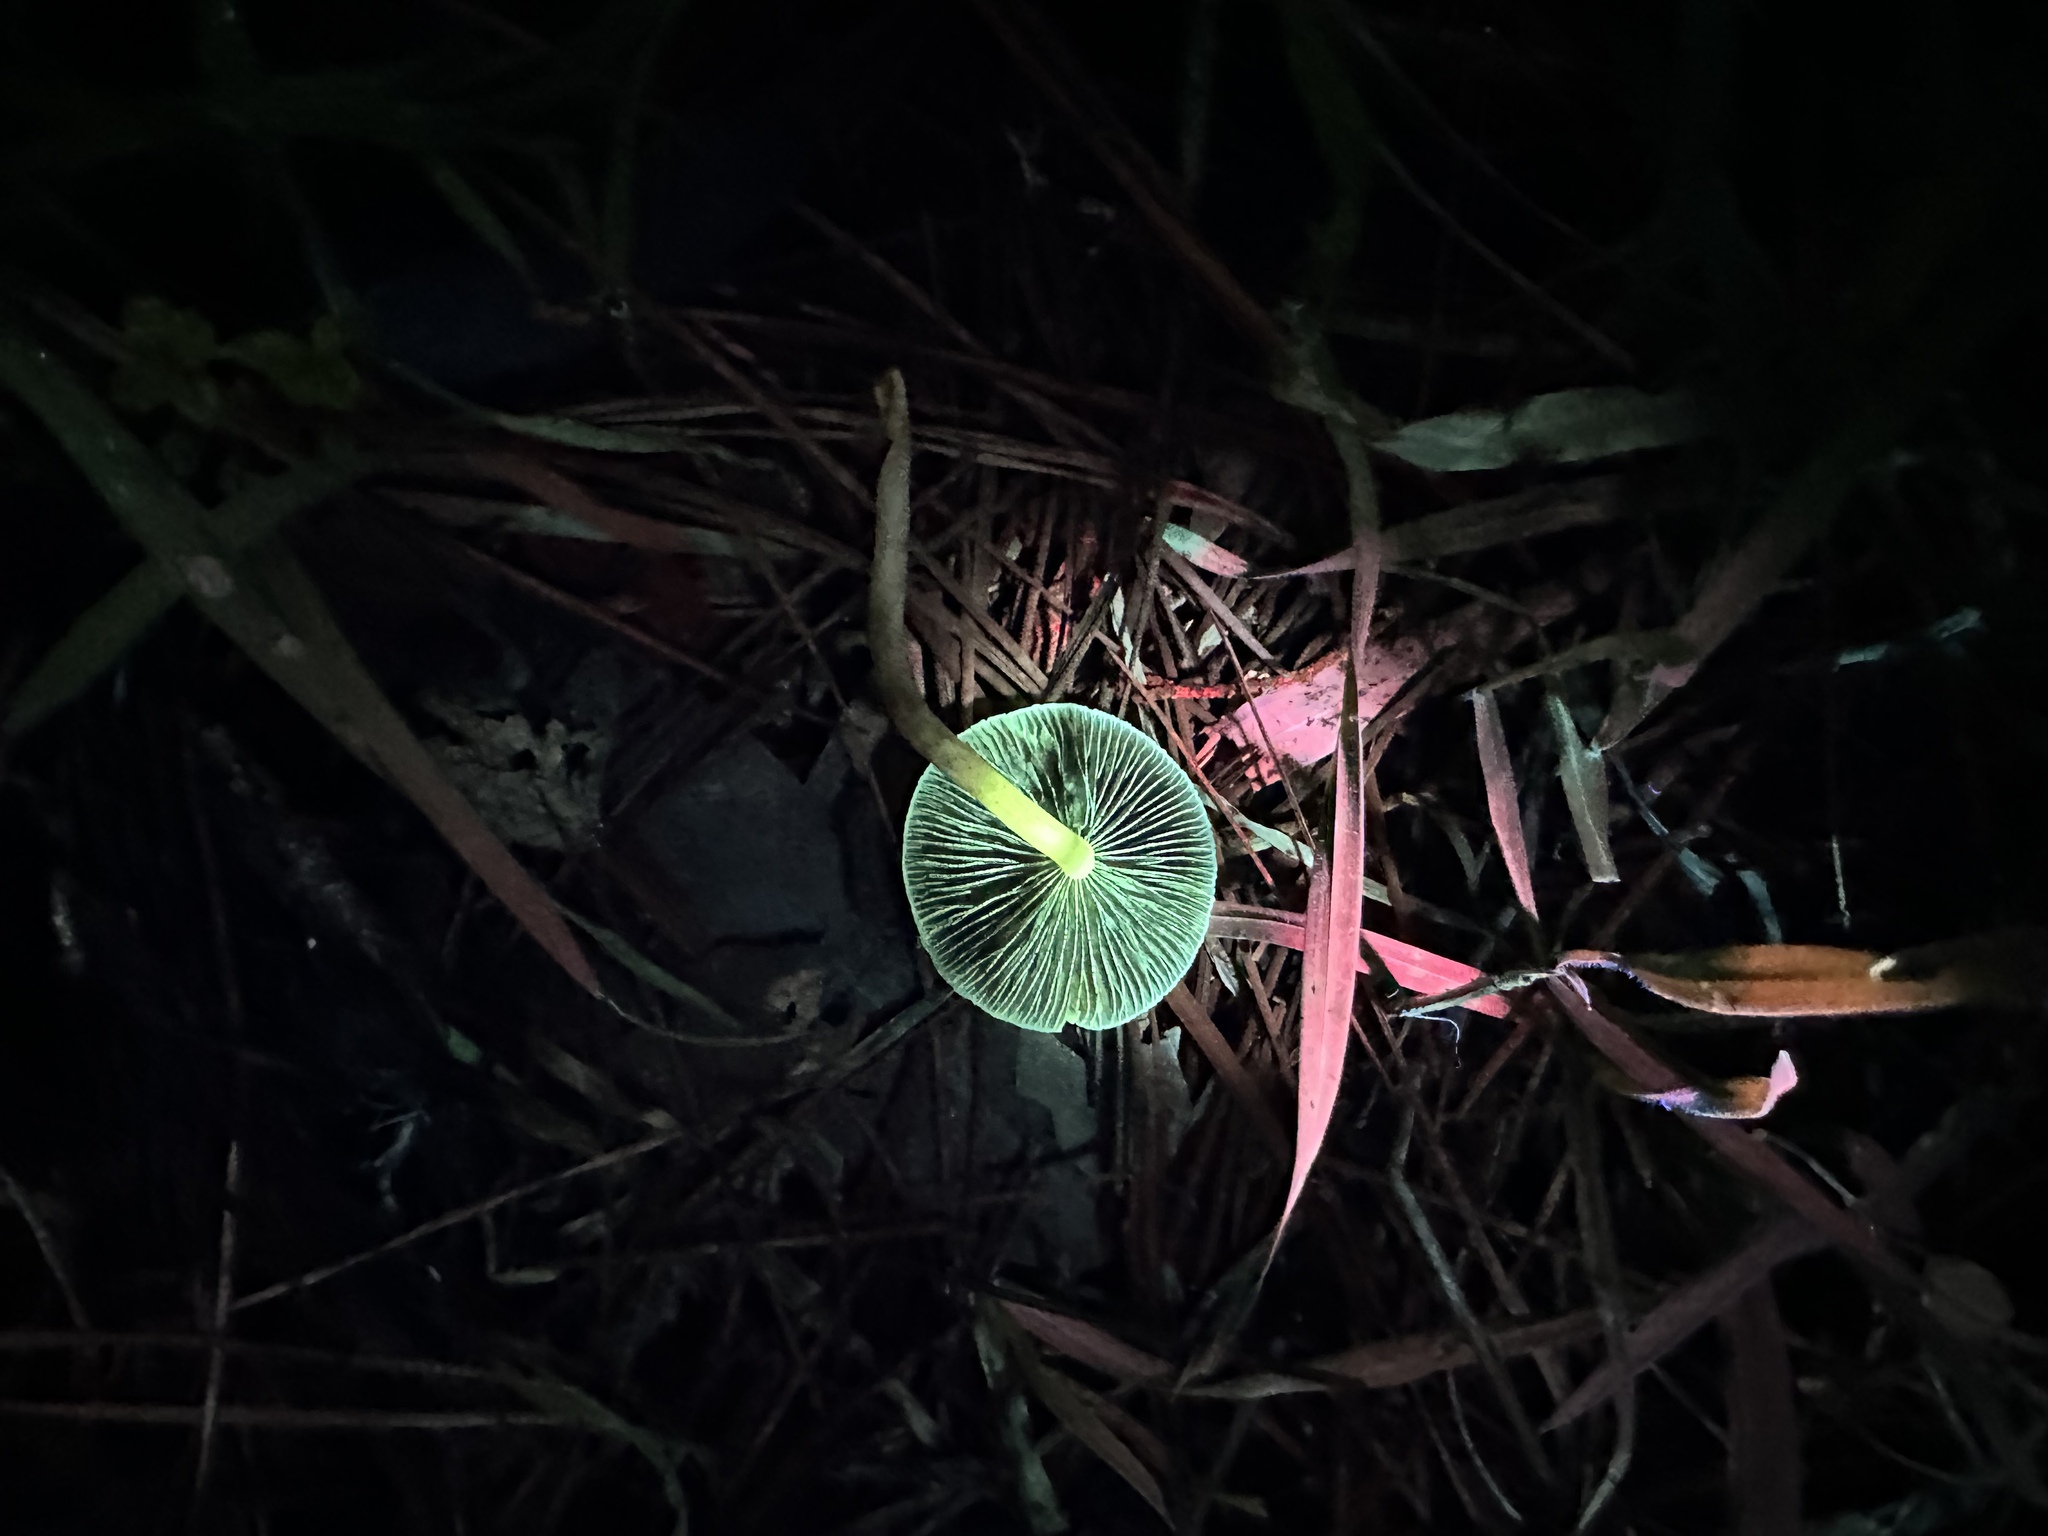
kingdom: Fungi
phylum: Basidiomycota
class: Agaricomycetes
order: Agaricales
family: Strophariaceae
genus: Leratiomyces
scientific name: Leratiomyces percevalii
